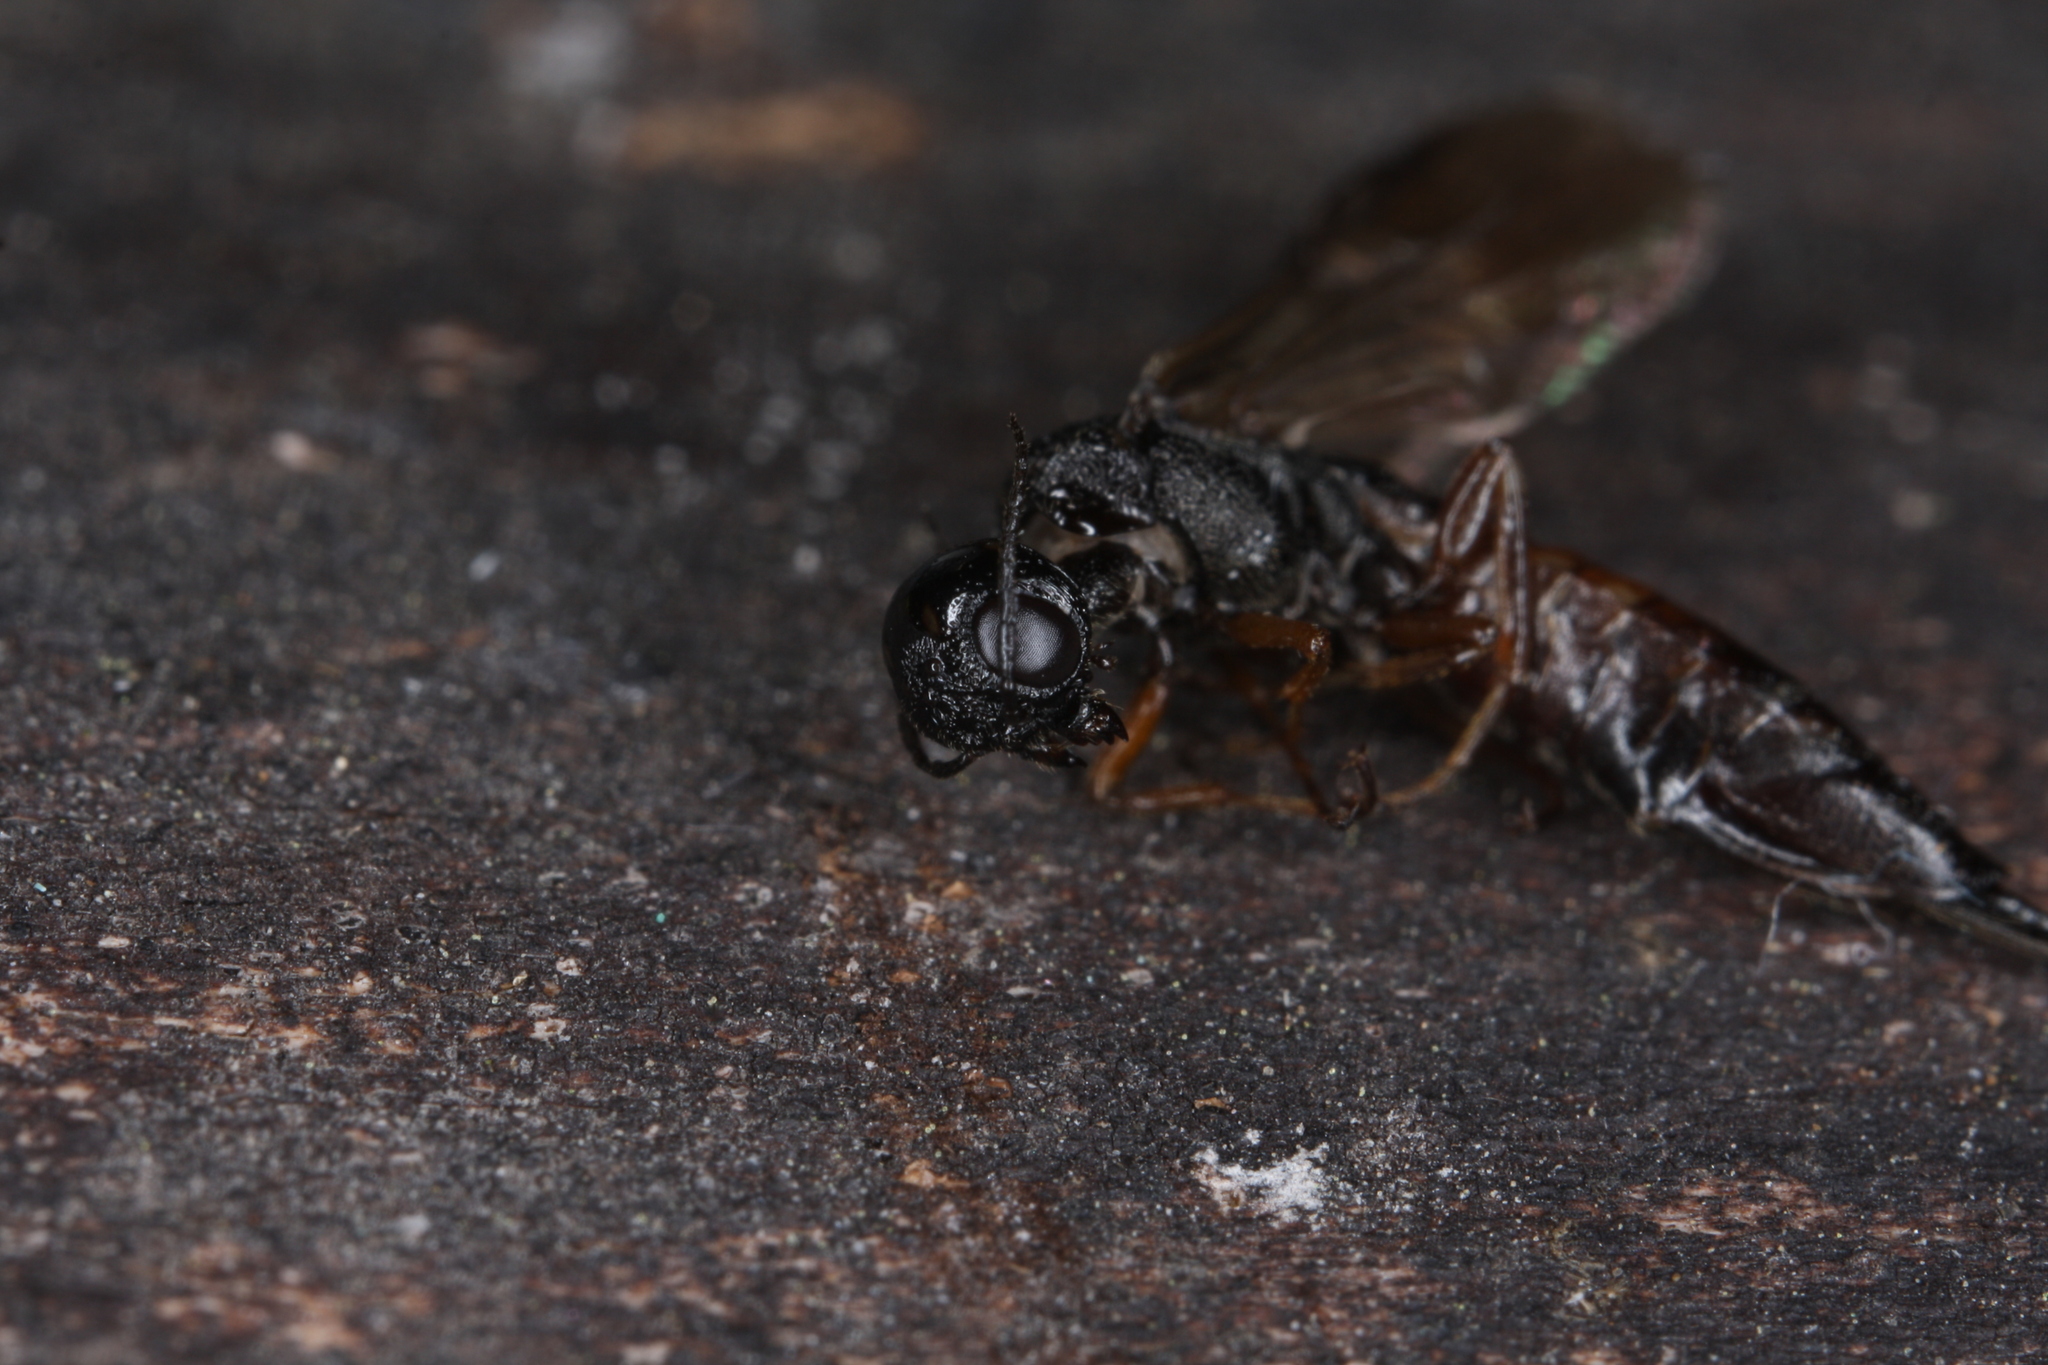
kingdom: Animalia
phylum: Arthropoda
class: Insecta
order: Hymenoptera
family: Xiphydriidae
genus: Xiphydria
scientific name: Xiphydria prolongata
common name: Wasp
